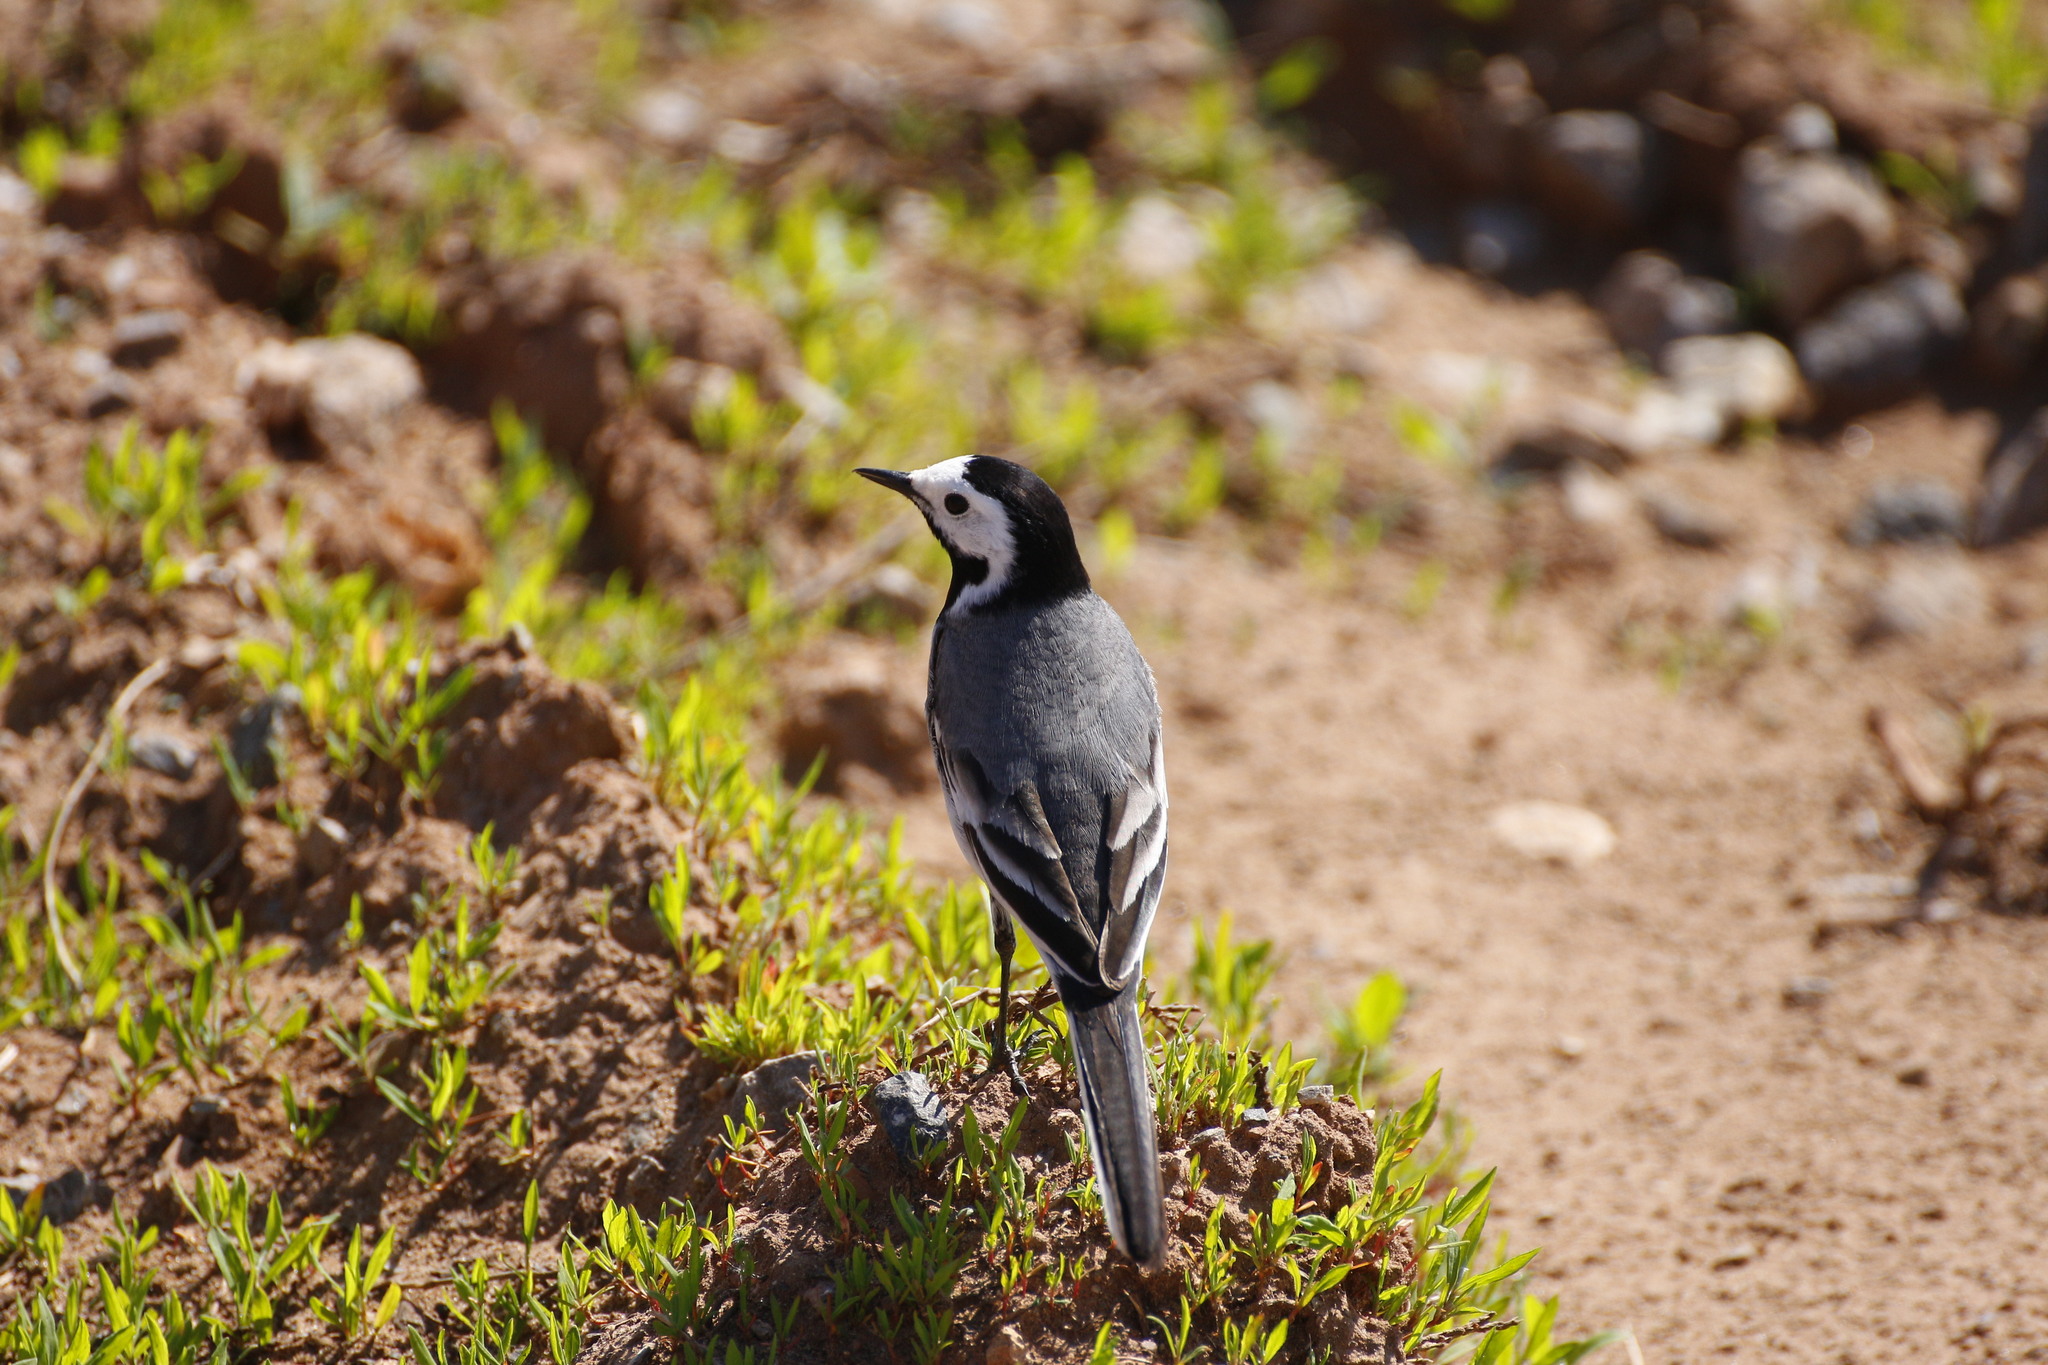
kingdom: Animalia
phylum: Chordata
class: Aves
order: Passeriformes
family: Motacillidae
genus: Motacilla
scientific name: Motacilla alba
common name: White wagtail
